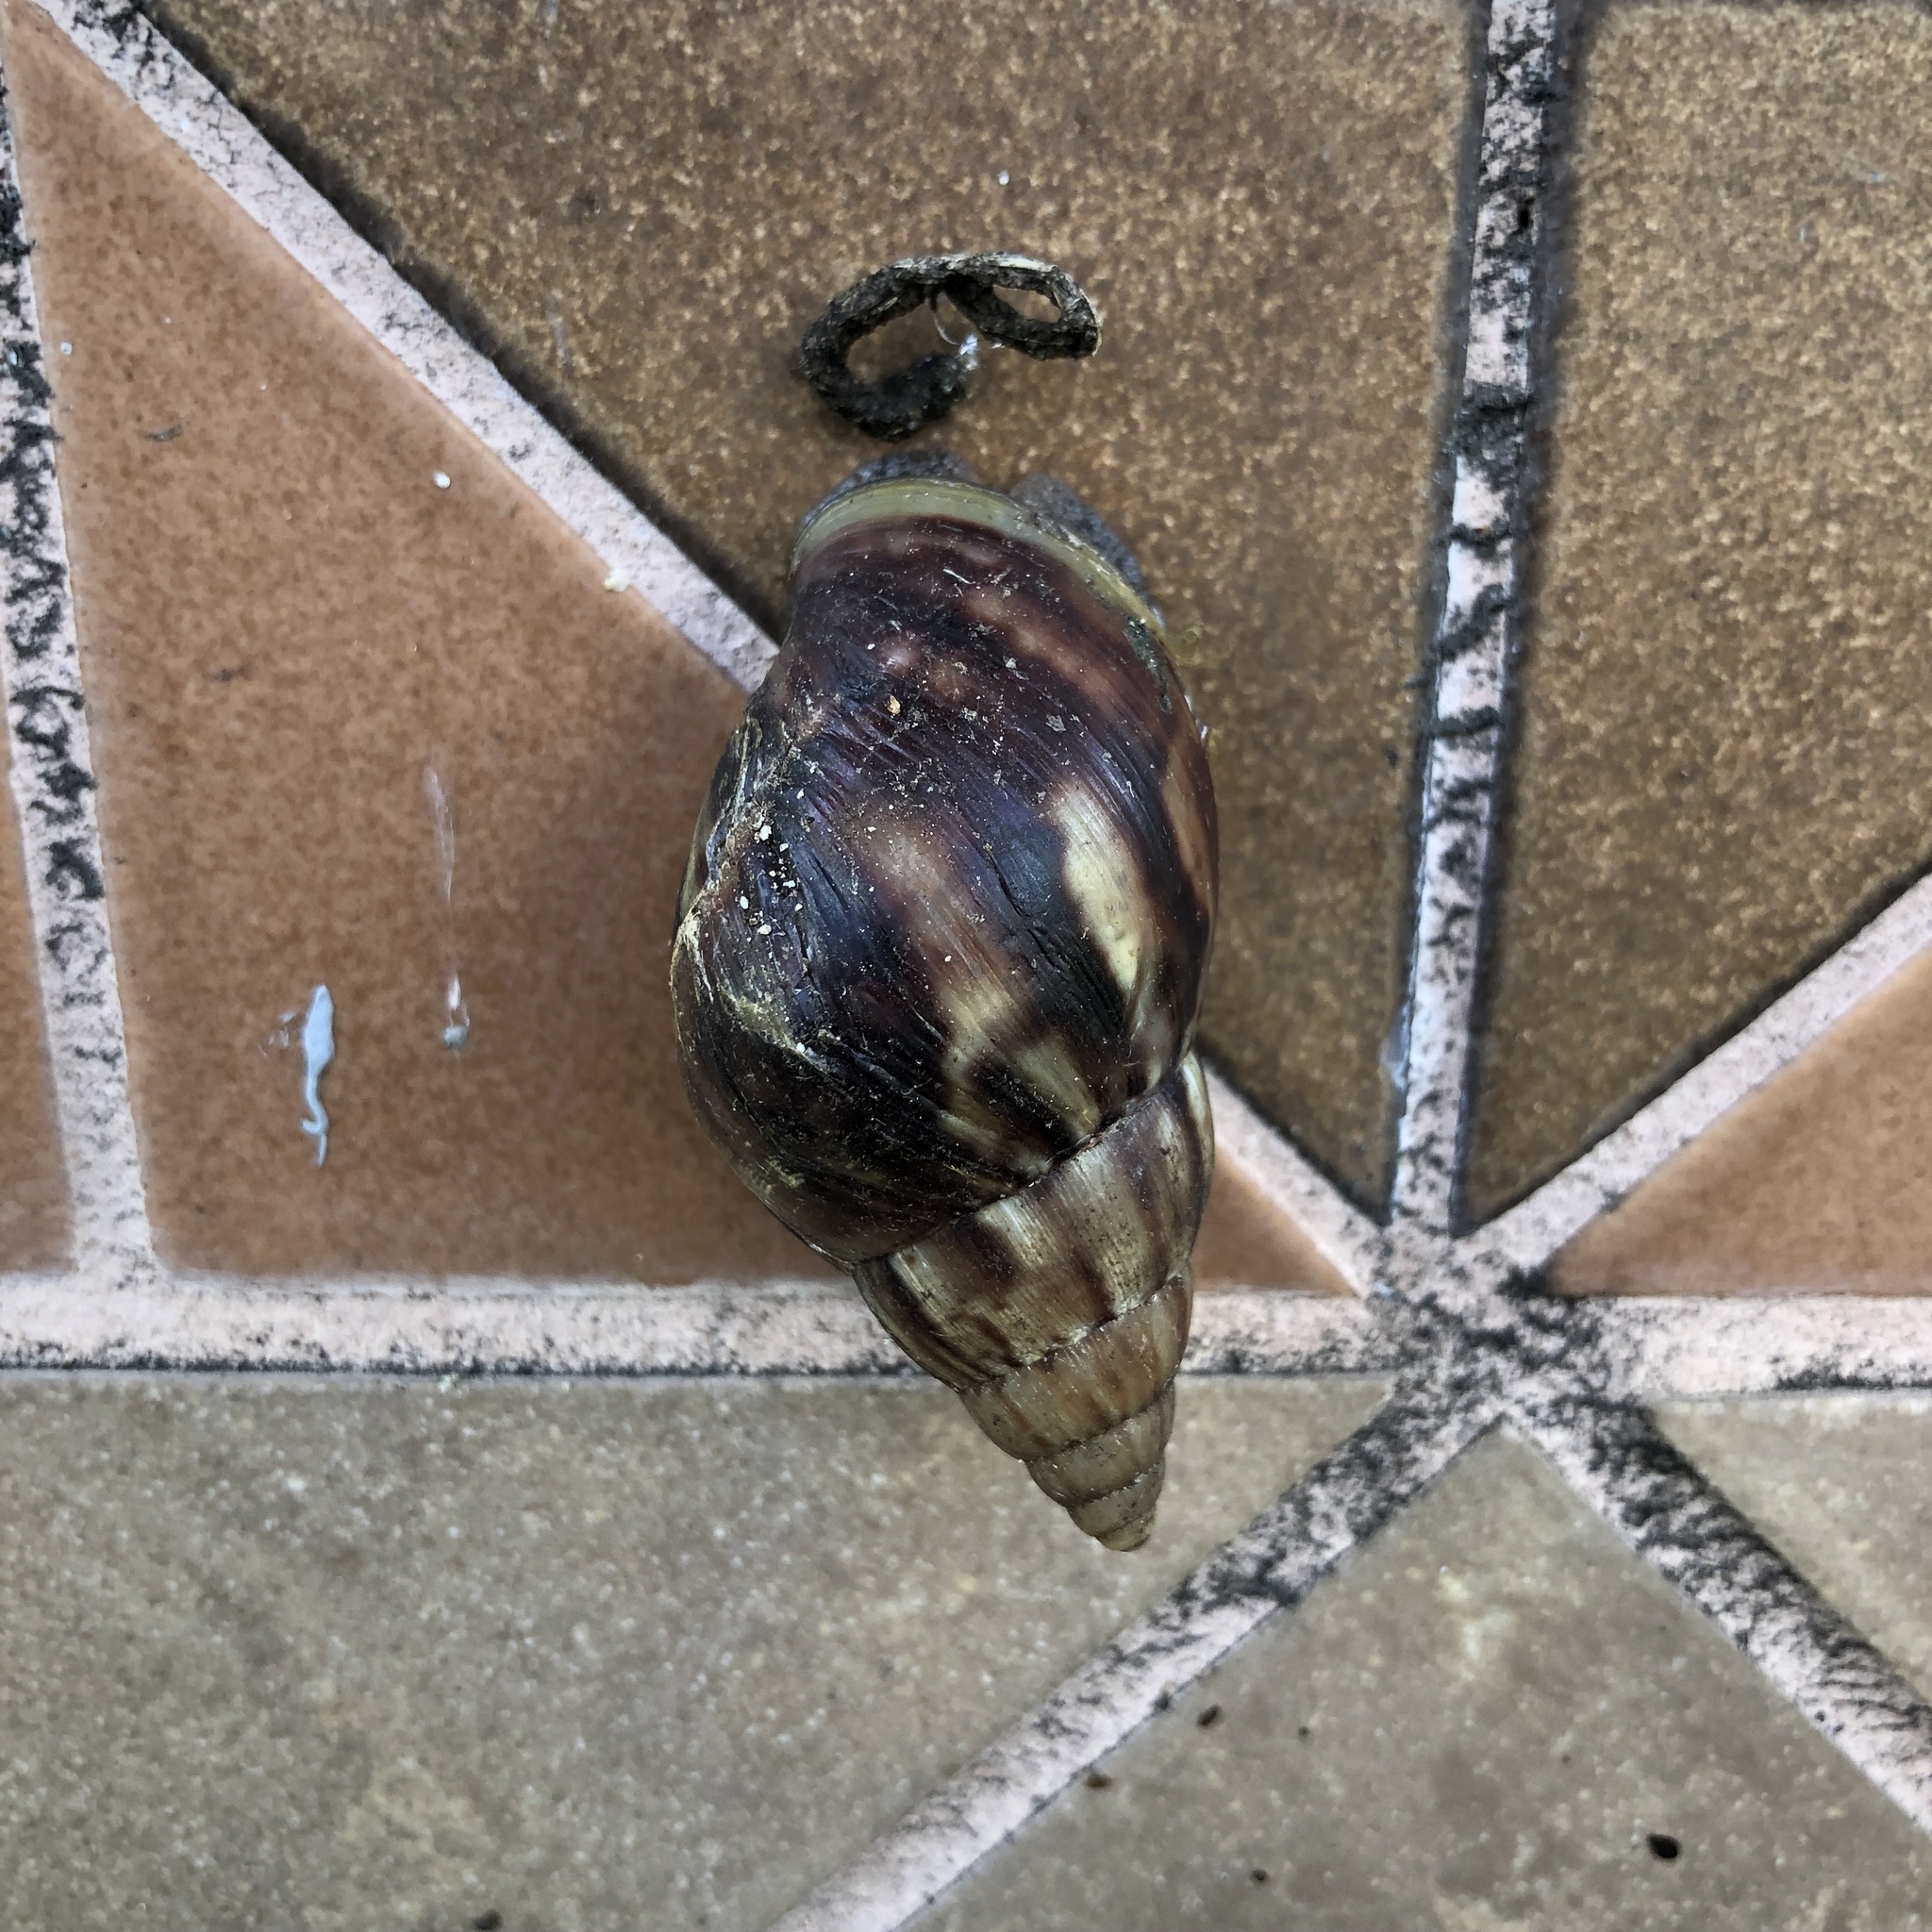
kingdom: Animalia
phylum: Mollusca
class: Gastropoda
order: Stylommatophora
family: Achatinidae
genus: Lissachatina
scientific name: Lissachatina fulica
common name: Giant african snail
